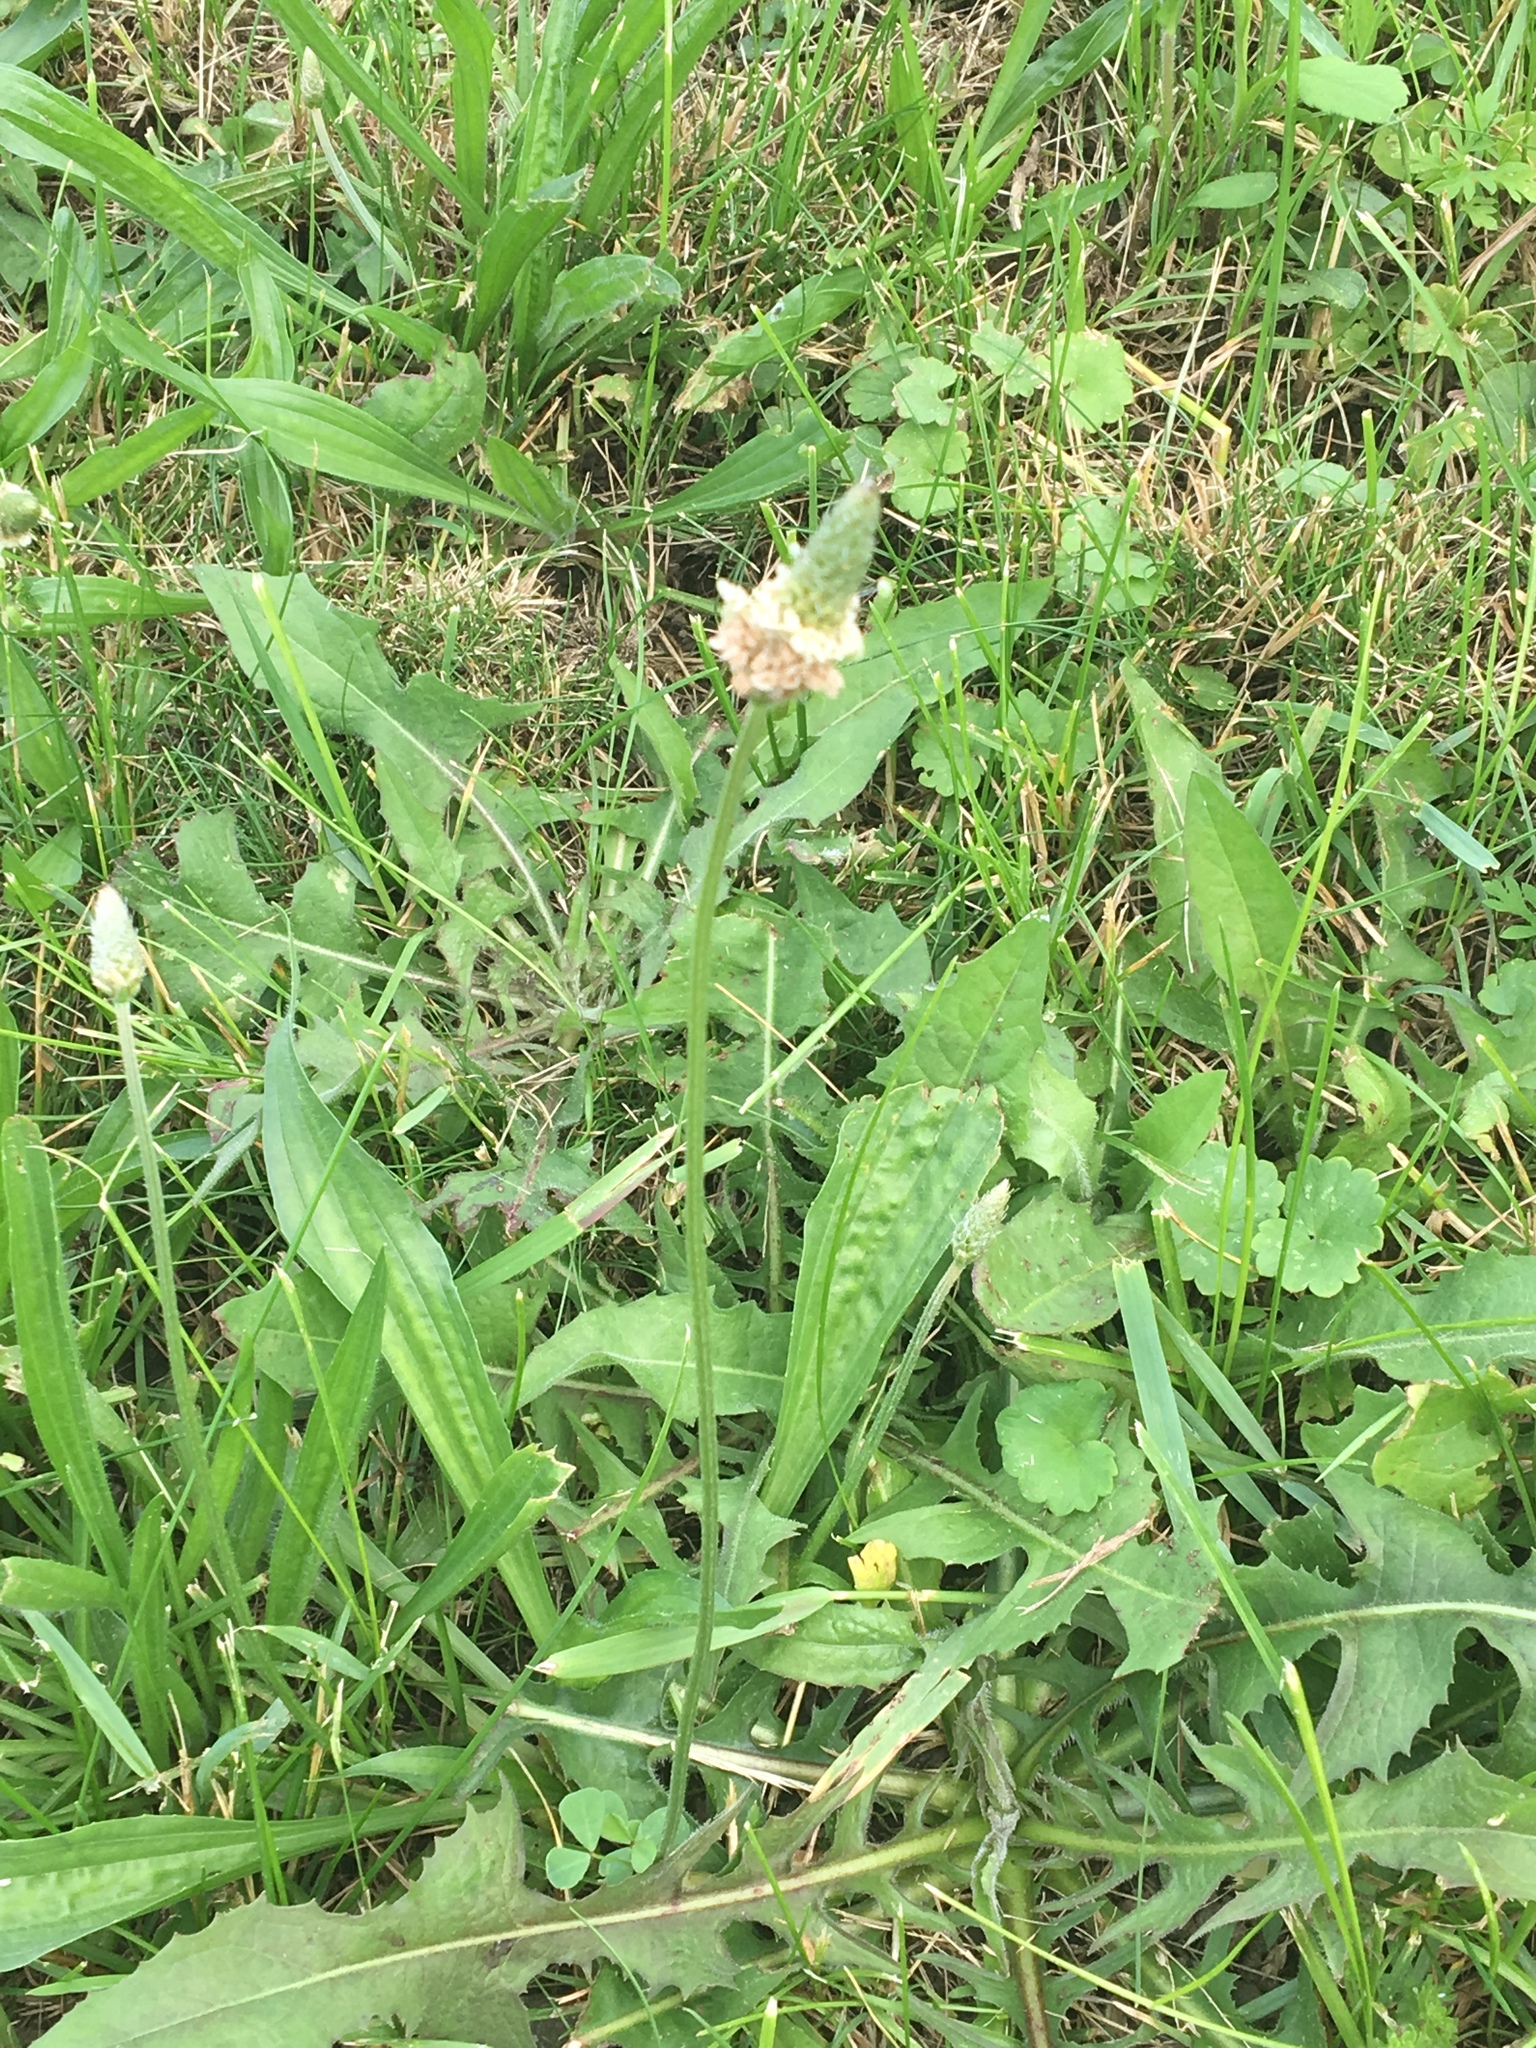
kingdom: Plantae
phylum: Tracheophyta
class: Magnoliopsida
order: Lamiales
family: Plantaginaceae
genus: Plantago
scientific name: Plantago lanceolata
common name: Ribwort plantain
